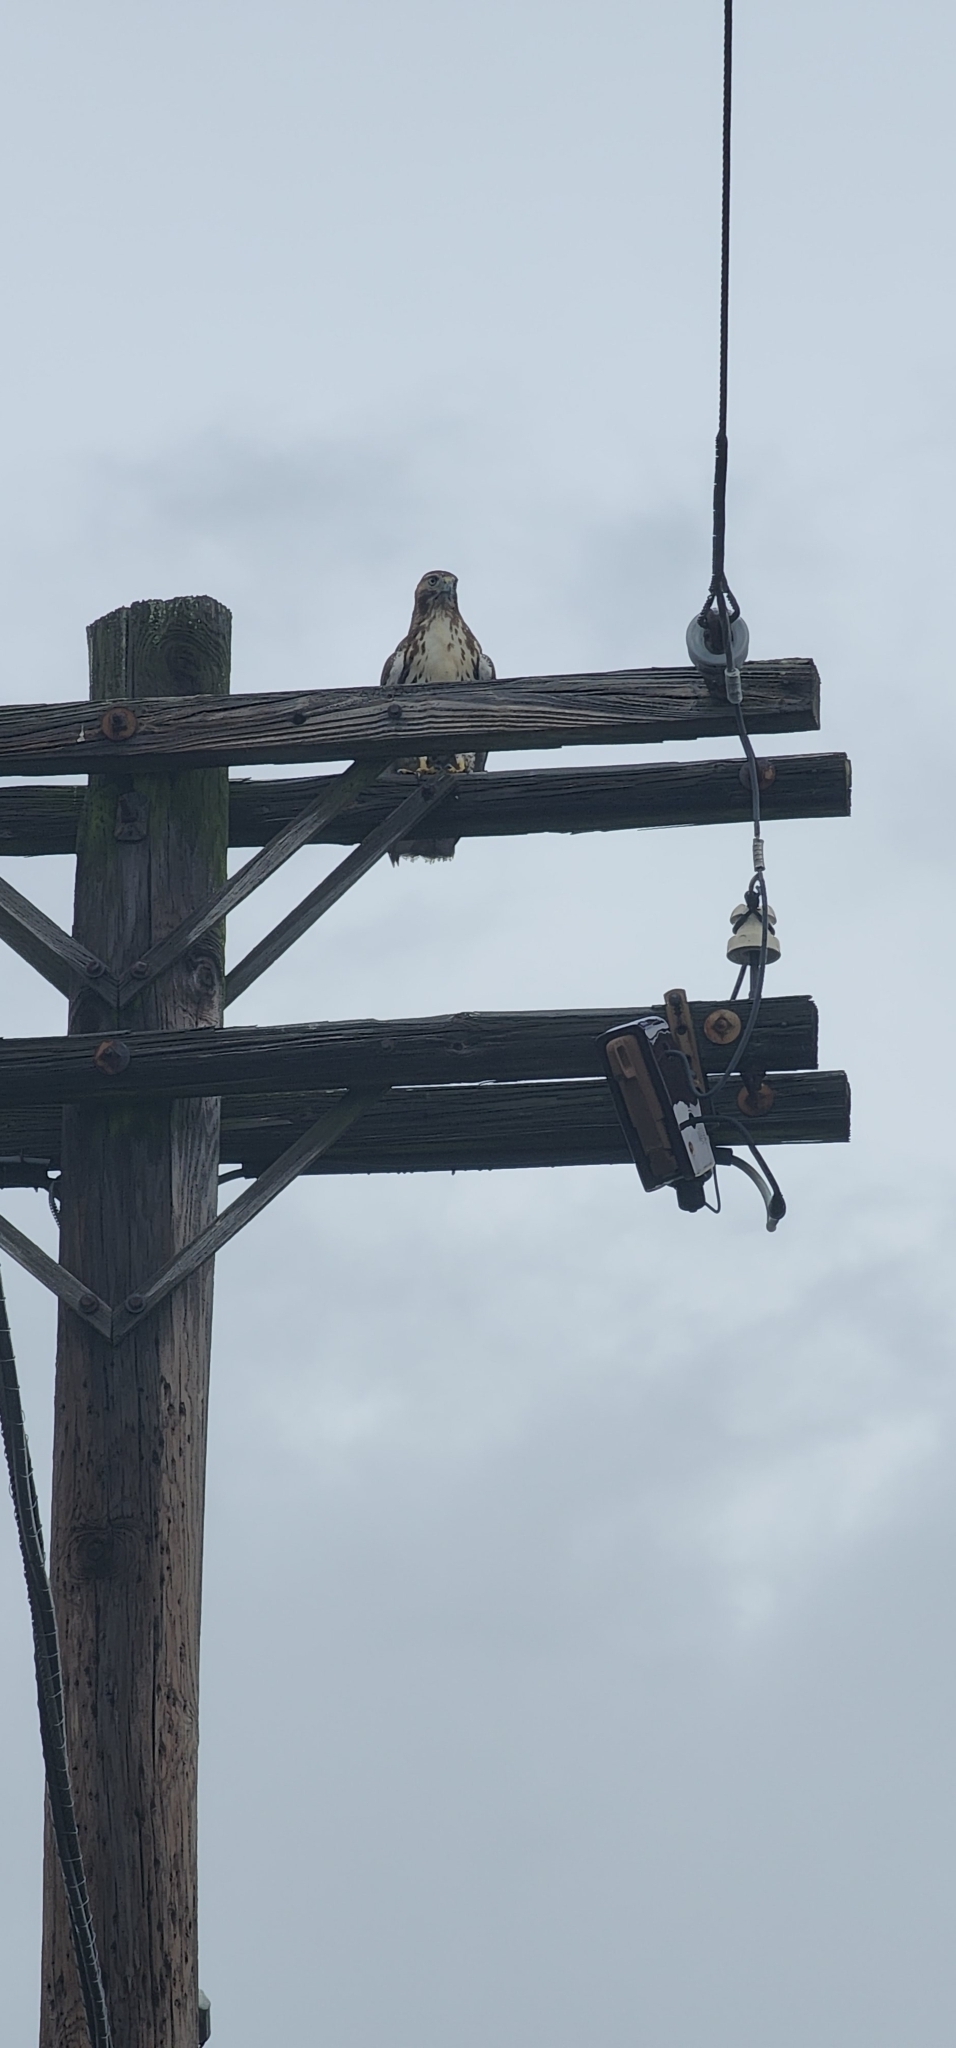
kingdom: Animalia
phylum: Chordata
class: Aves
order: Accipitriformes
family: Accipitridae
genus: Buteo
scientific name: Buteo jamaicensis
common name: Red-tailed hawk
